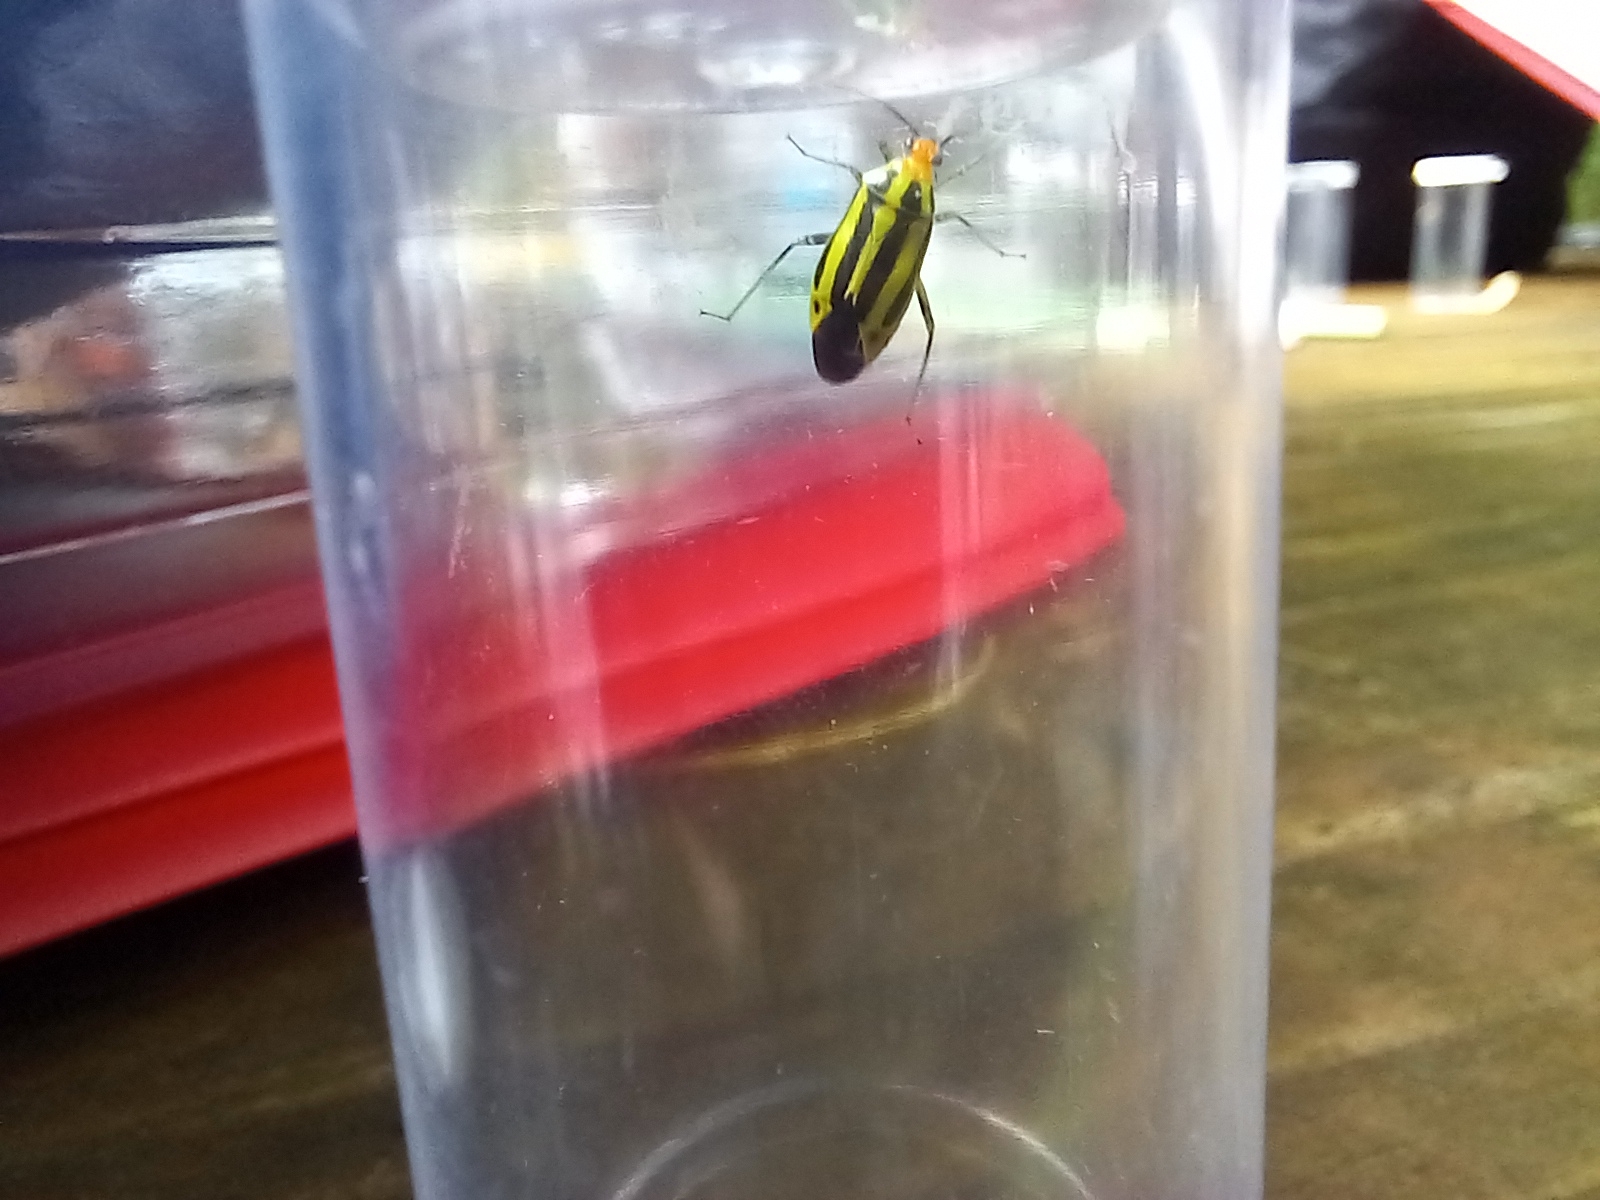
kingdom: Animalia
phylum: Arthropoda
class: Insecta
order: Hemiptera
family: Miridae
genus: Poecilocapsus
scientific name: Poecilocapsus lineatus
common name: Four-lined plant bug
